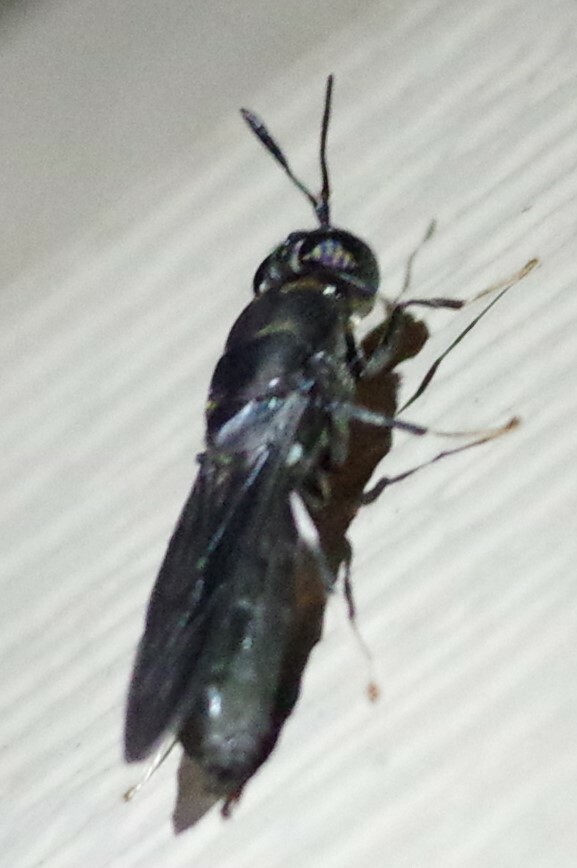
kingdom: Animalia
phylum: Arthropoda
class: Insecta
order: Diptera
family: Stratiomyidae
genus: Hermetia
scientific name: Hermetia illucens
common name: Black soldier fly
